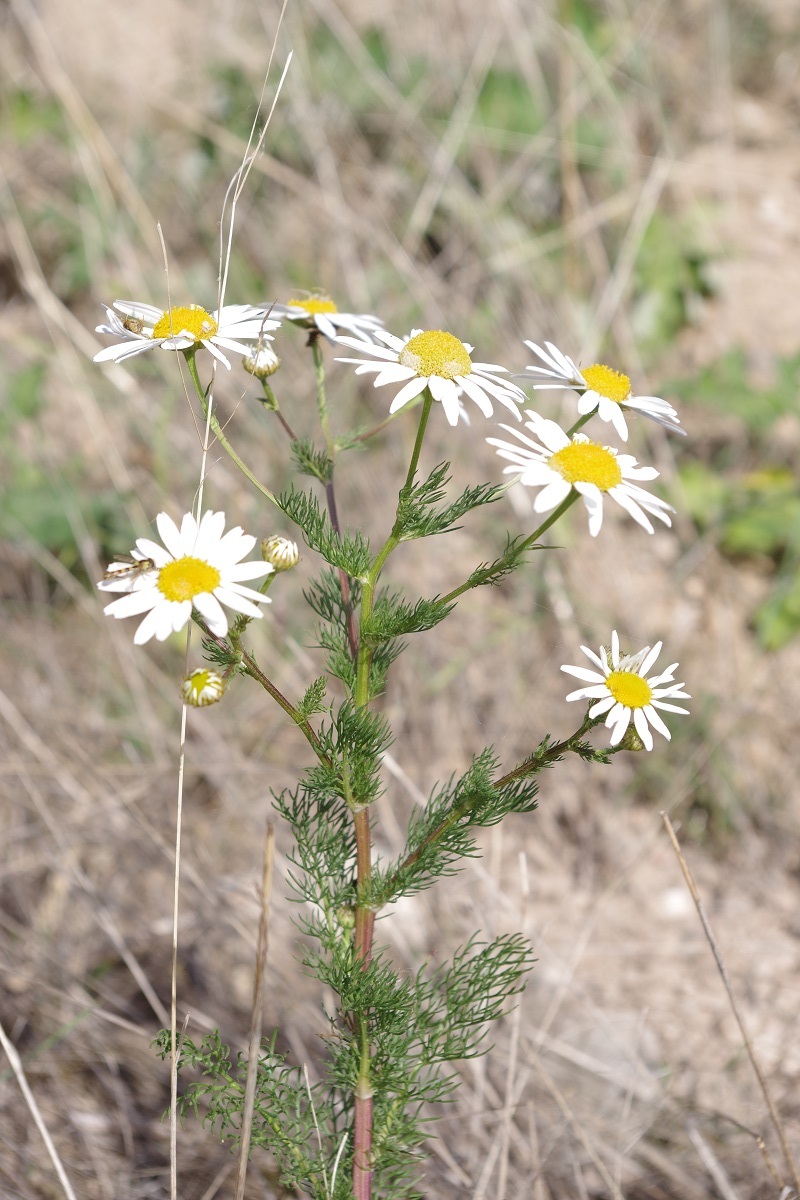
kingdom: Plantae
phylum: Tracheophyta
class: Magnoliopsida
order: Asterales
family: Asteraceae
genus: Tripleurospermum
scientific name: Tripleurospermum inodorum
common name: Scentless mayweed
